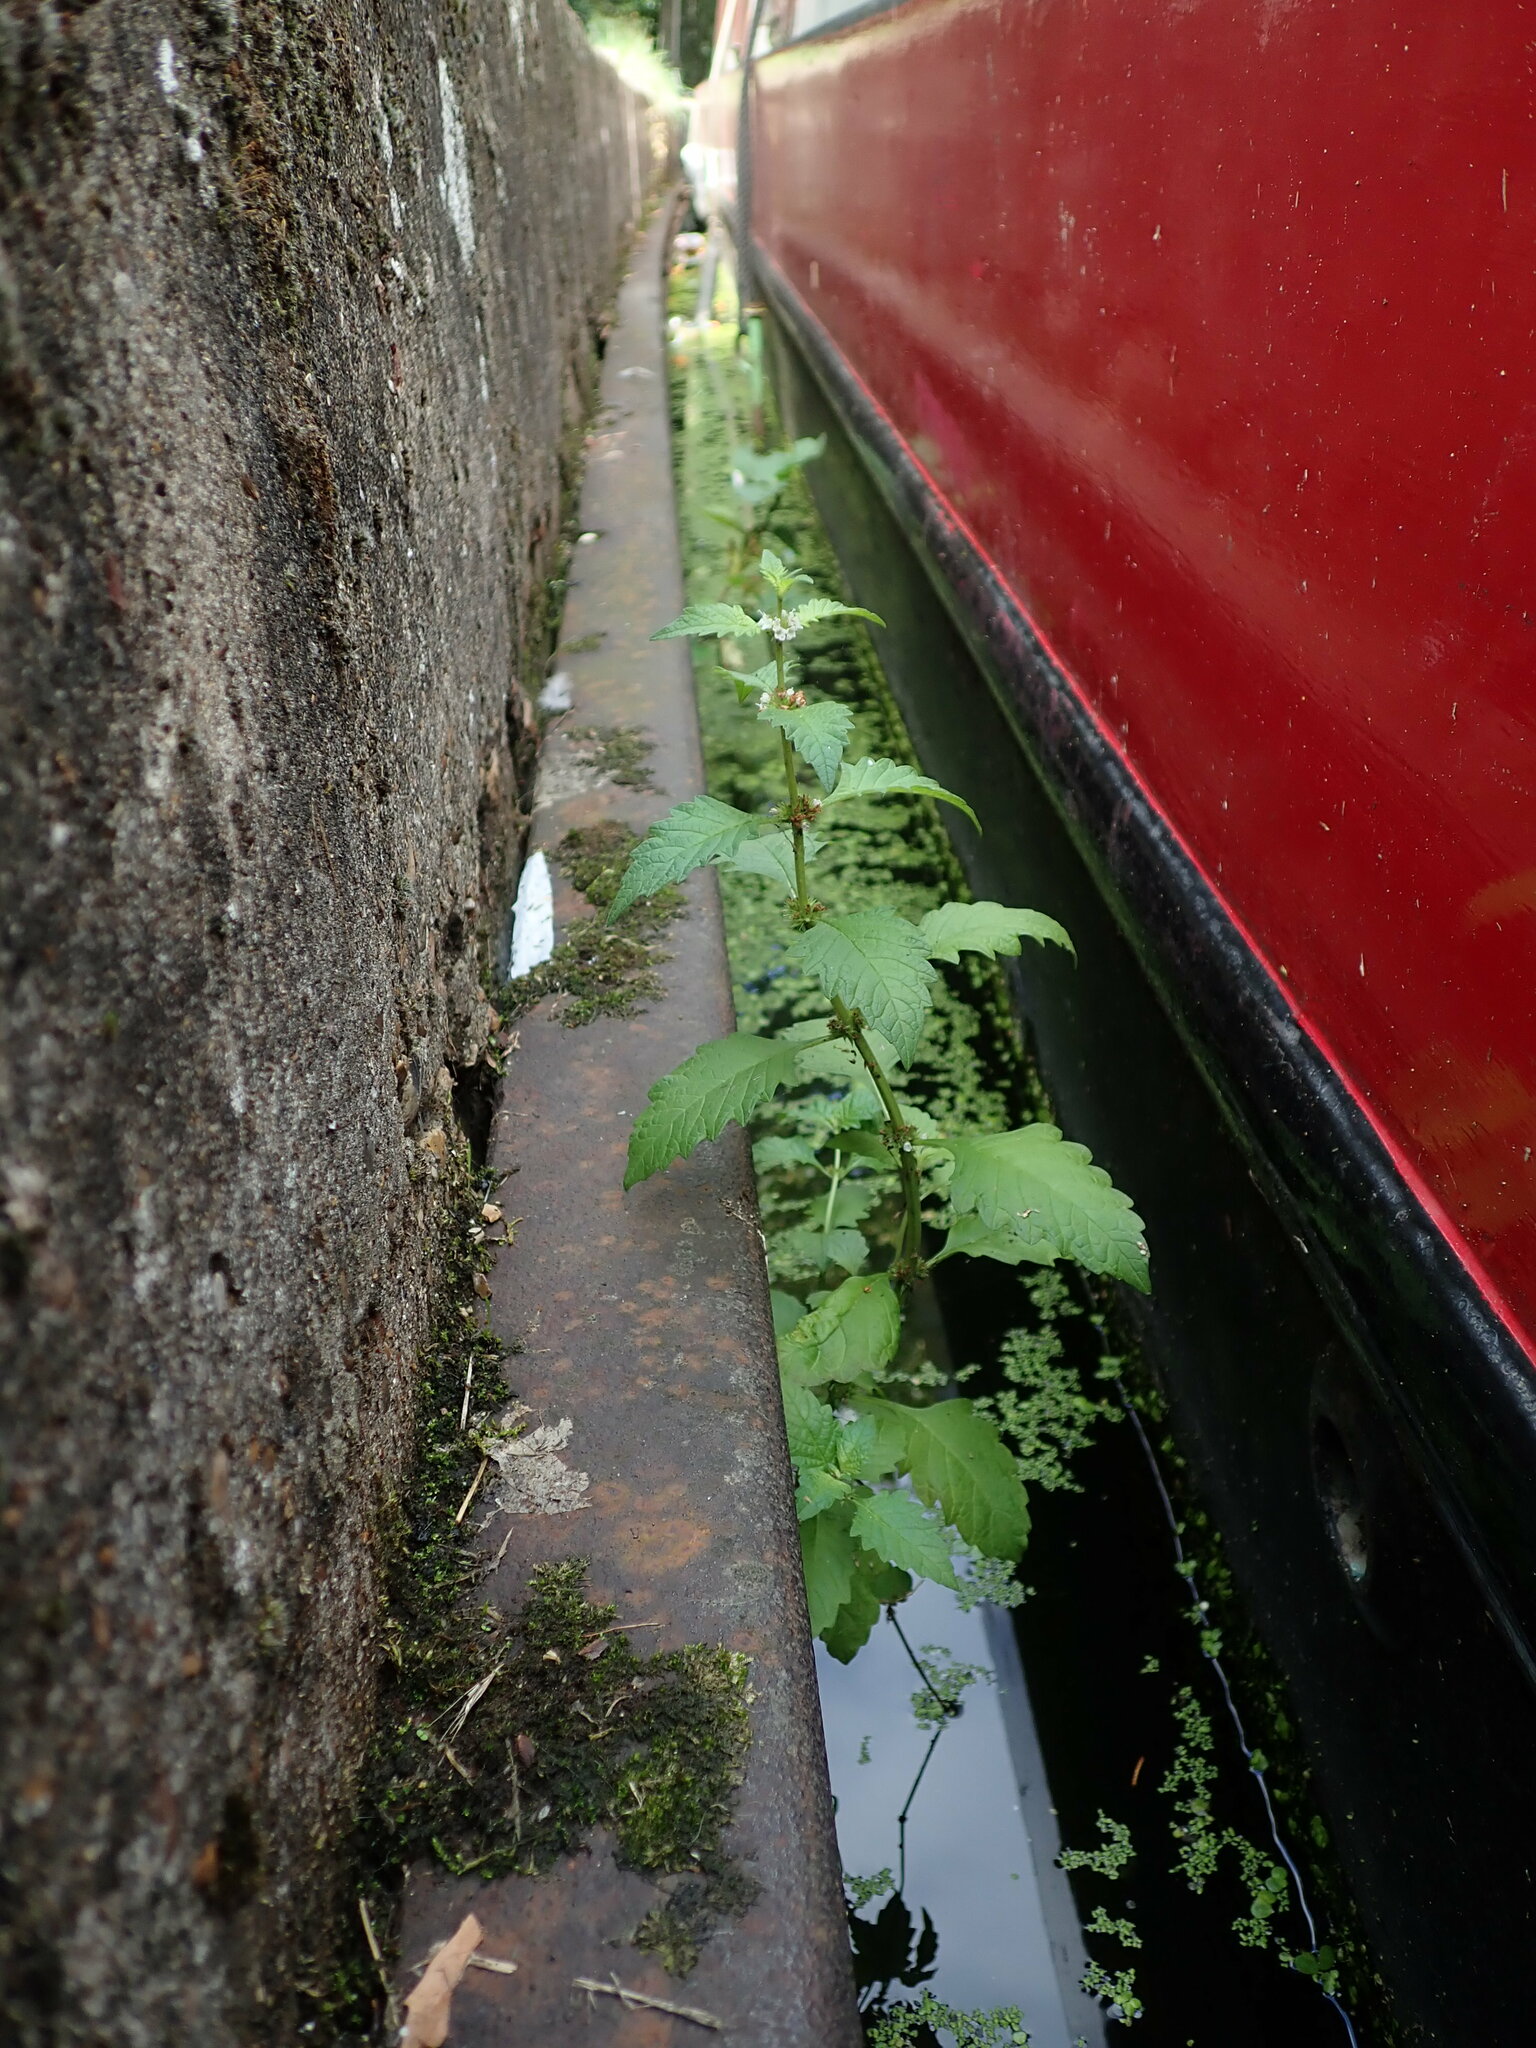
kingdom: Plantae
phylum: Tracheophyta
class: Magnoliopsida
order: Lamiales
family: Lamiaceae
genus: Lycopus
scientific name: Lycopus europaeus
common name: European bugleweed
